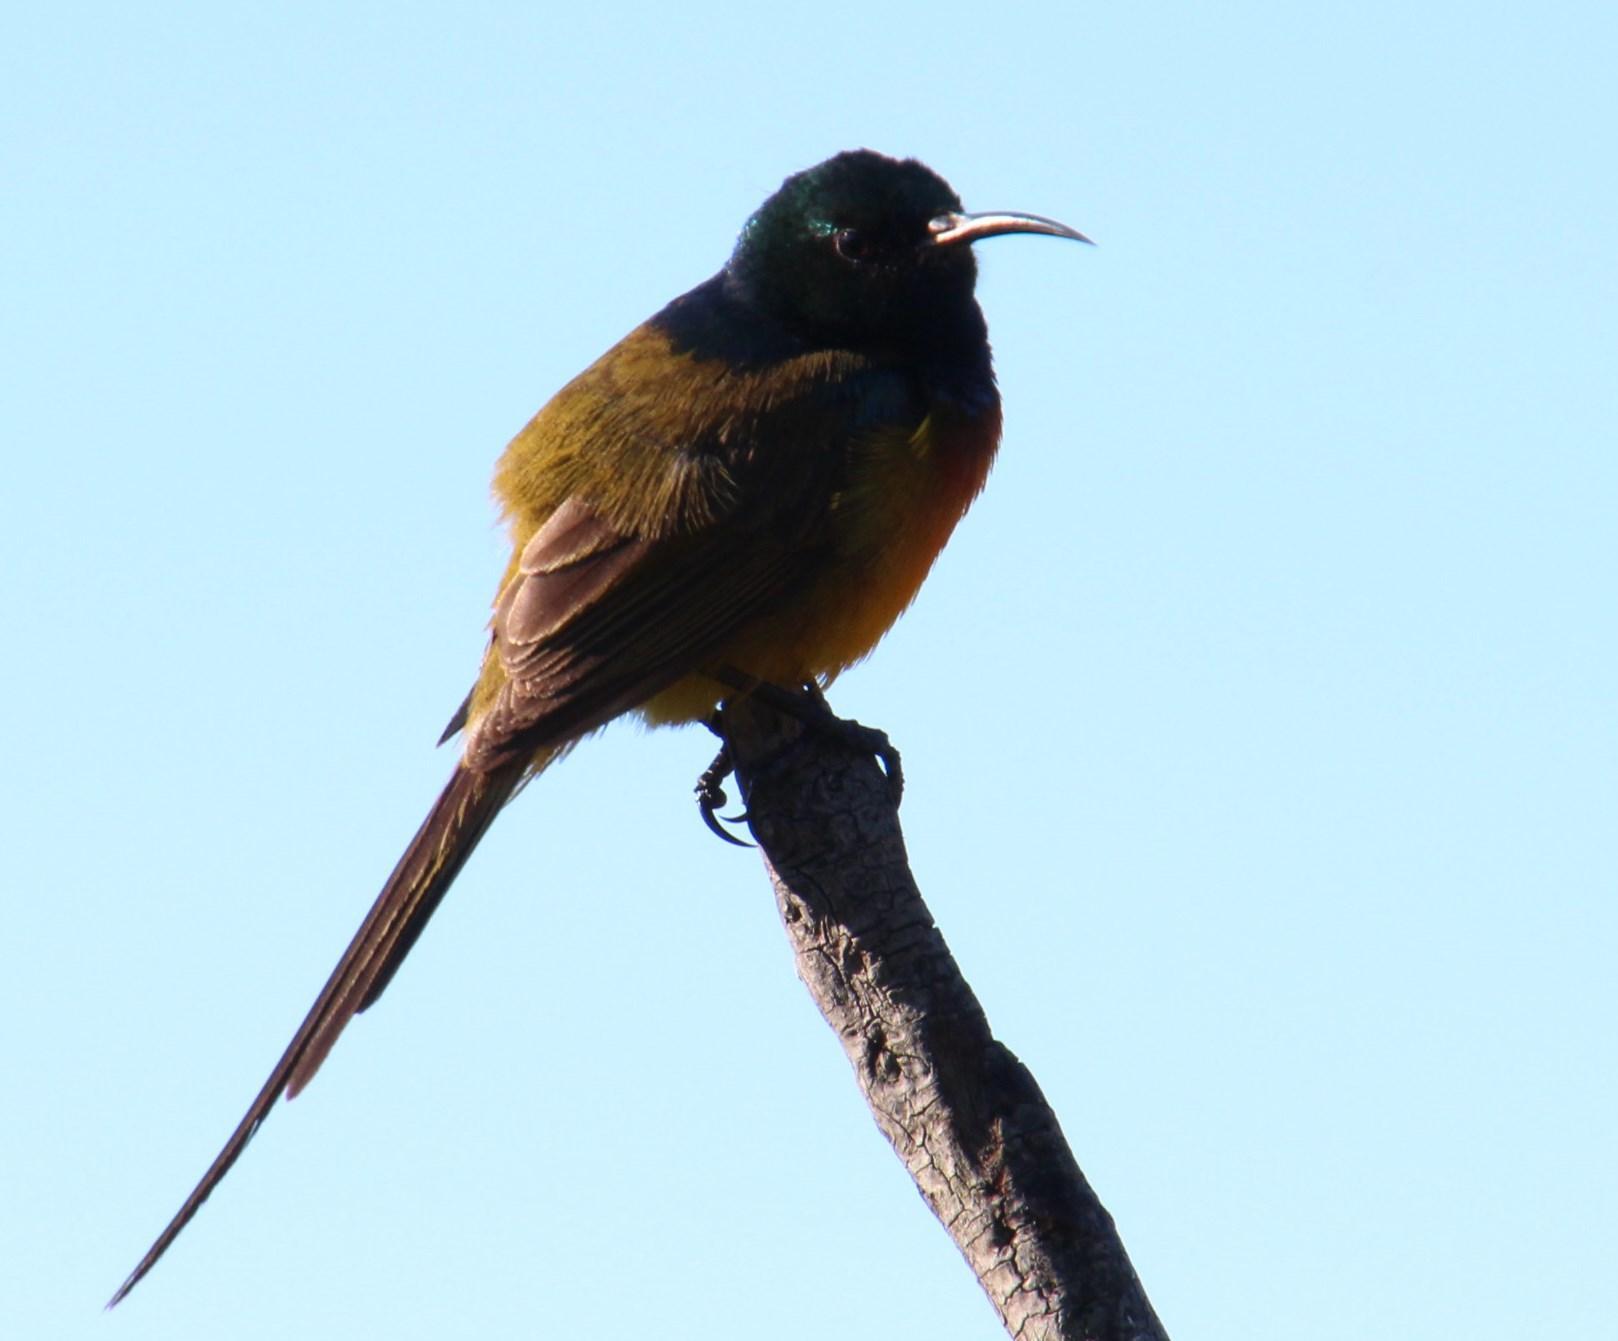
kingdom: Animalia
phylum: Chordata
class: Aves
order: Passeriformes
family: Nectariniidae
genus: Anthobaphes
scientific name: Anthobaphes violacea
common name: Orange-breasted sunbird
